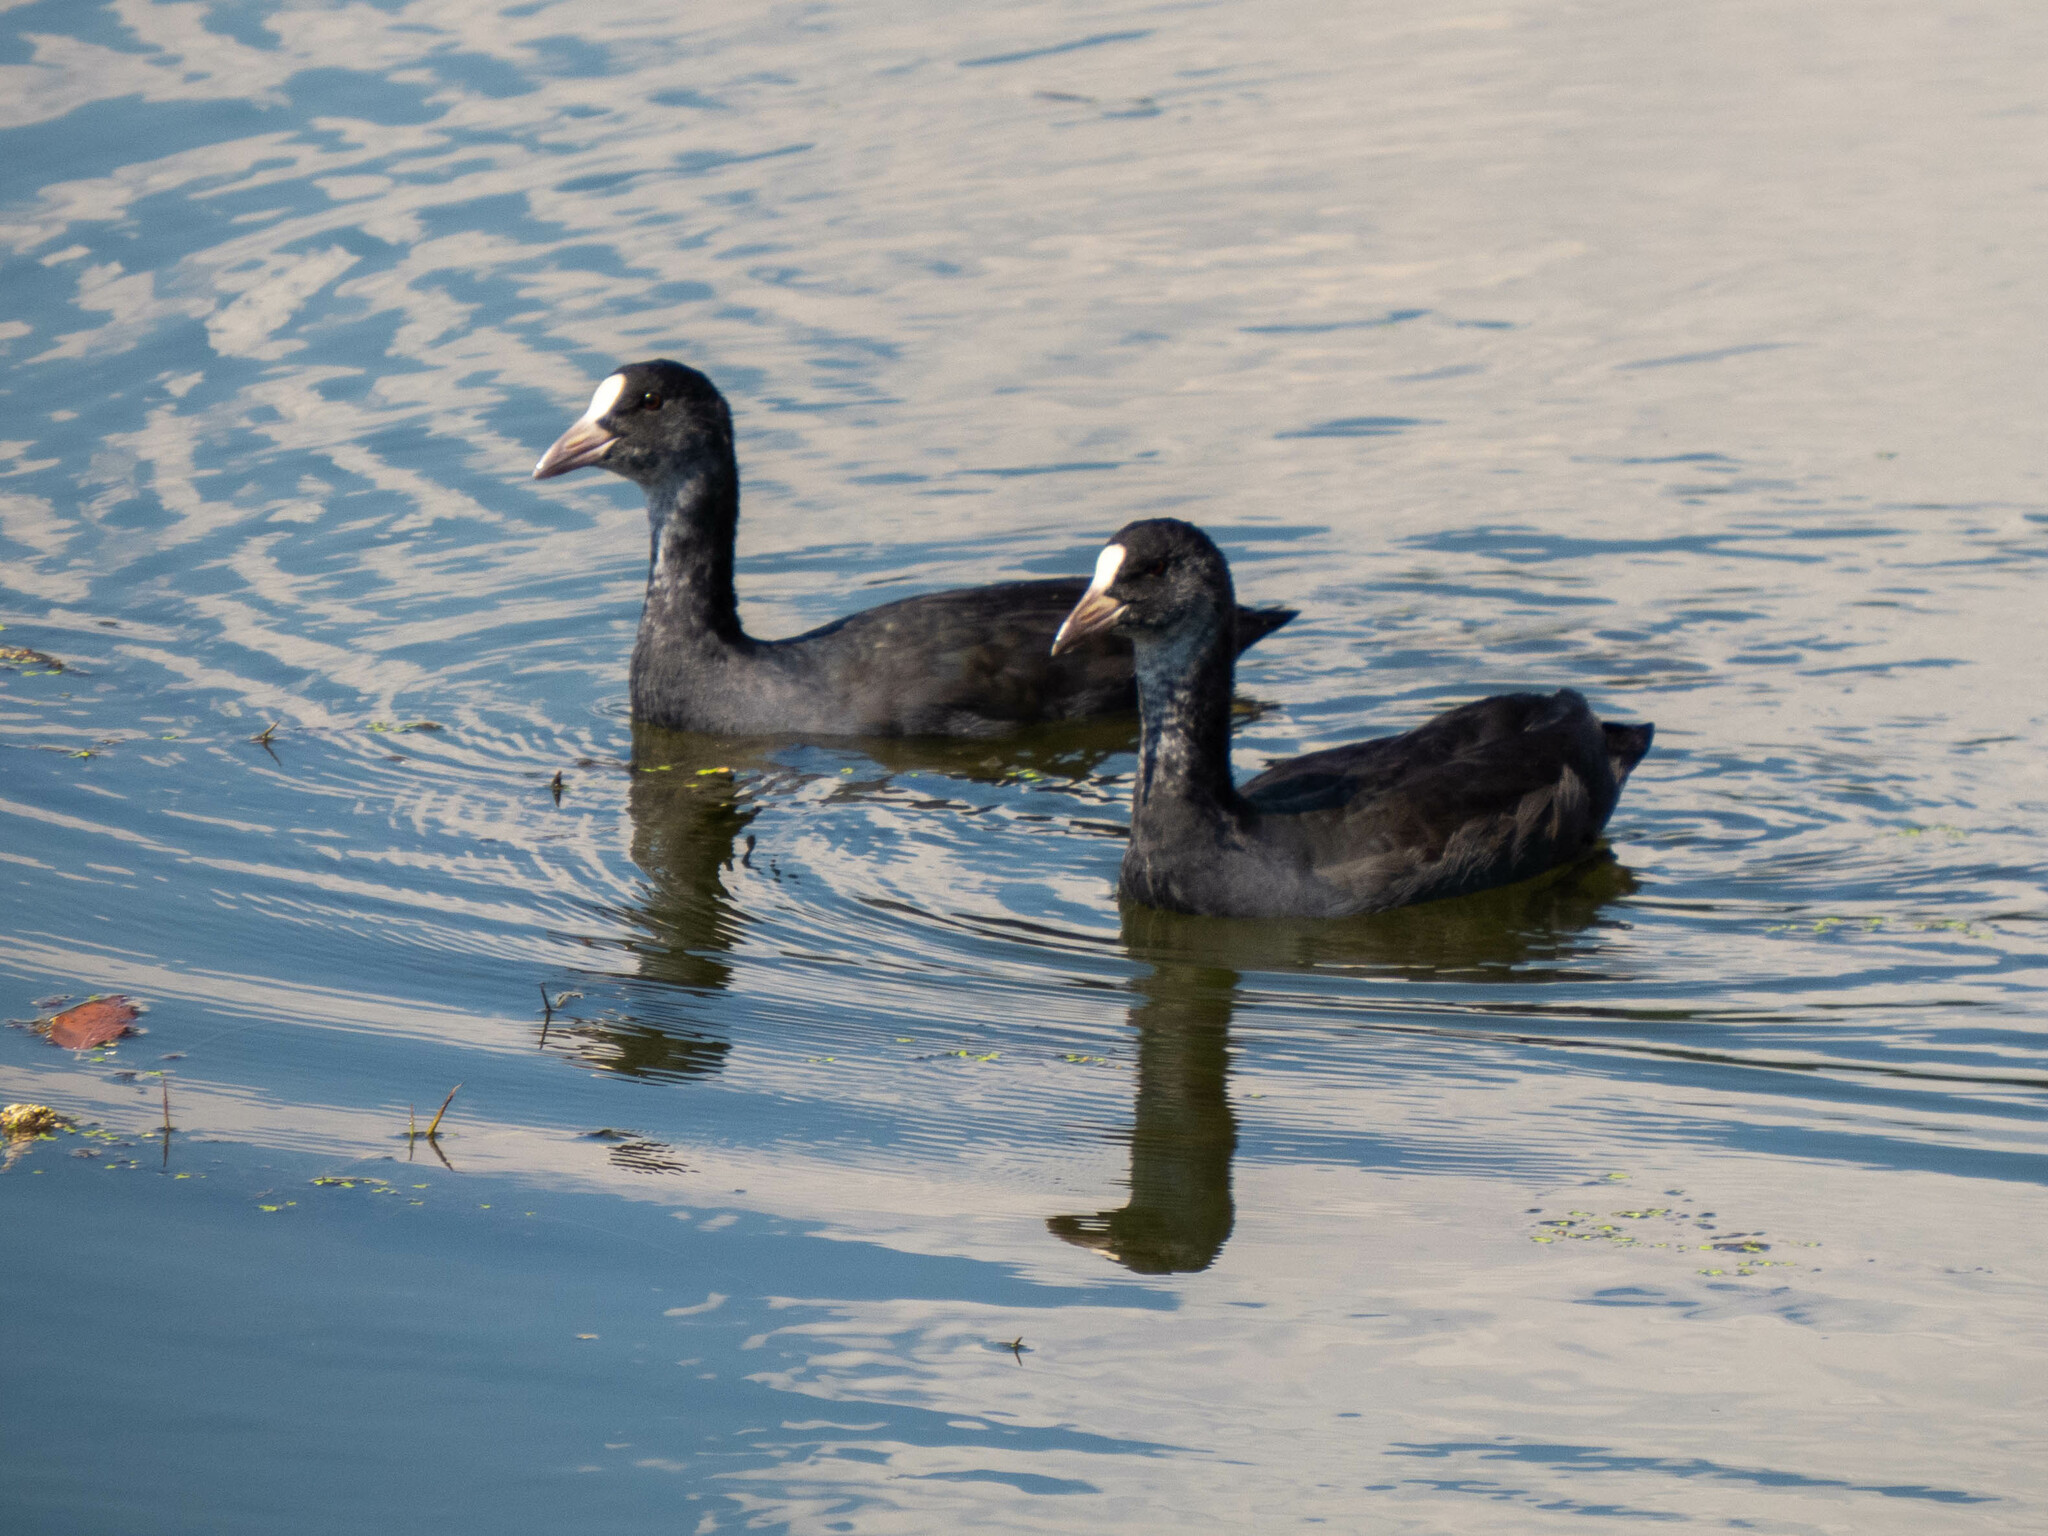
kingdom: Animalia
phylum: Chordata
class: Aves
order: Gruiformes
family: Rallidae
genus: Fulica
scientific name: Fulica atra
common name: Eurasian coot
